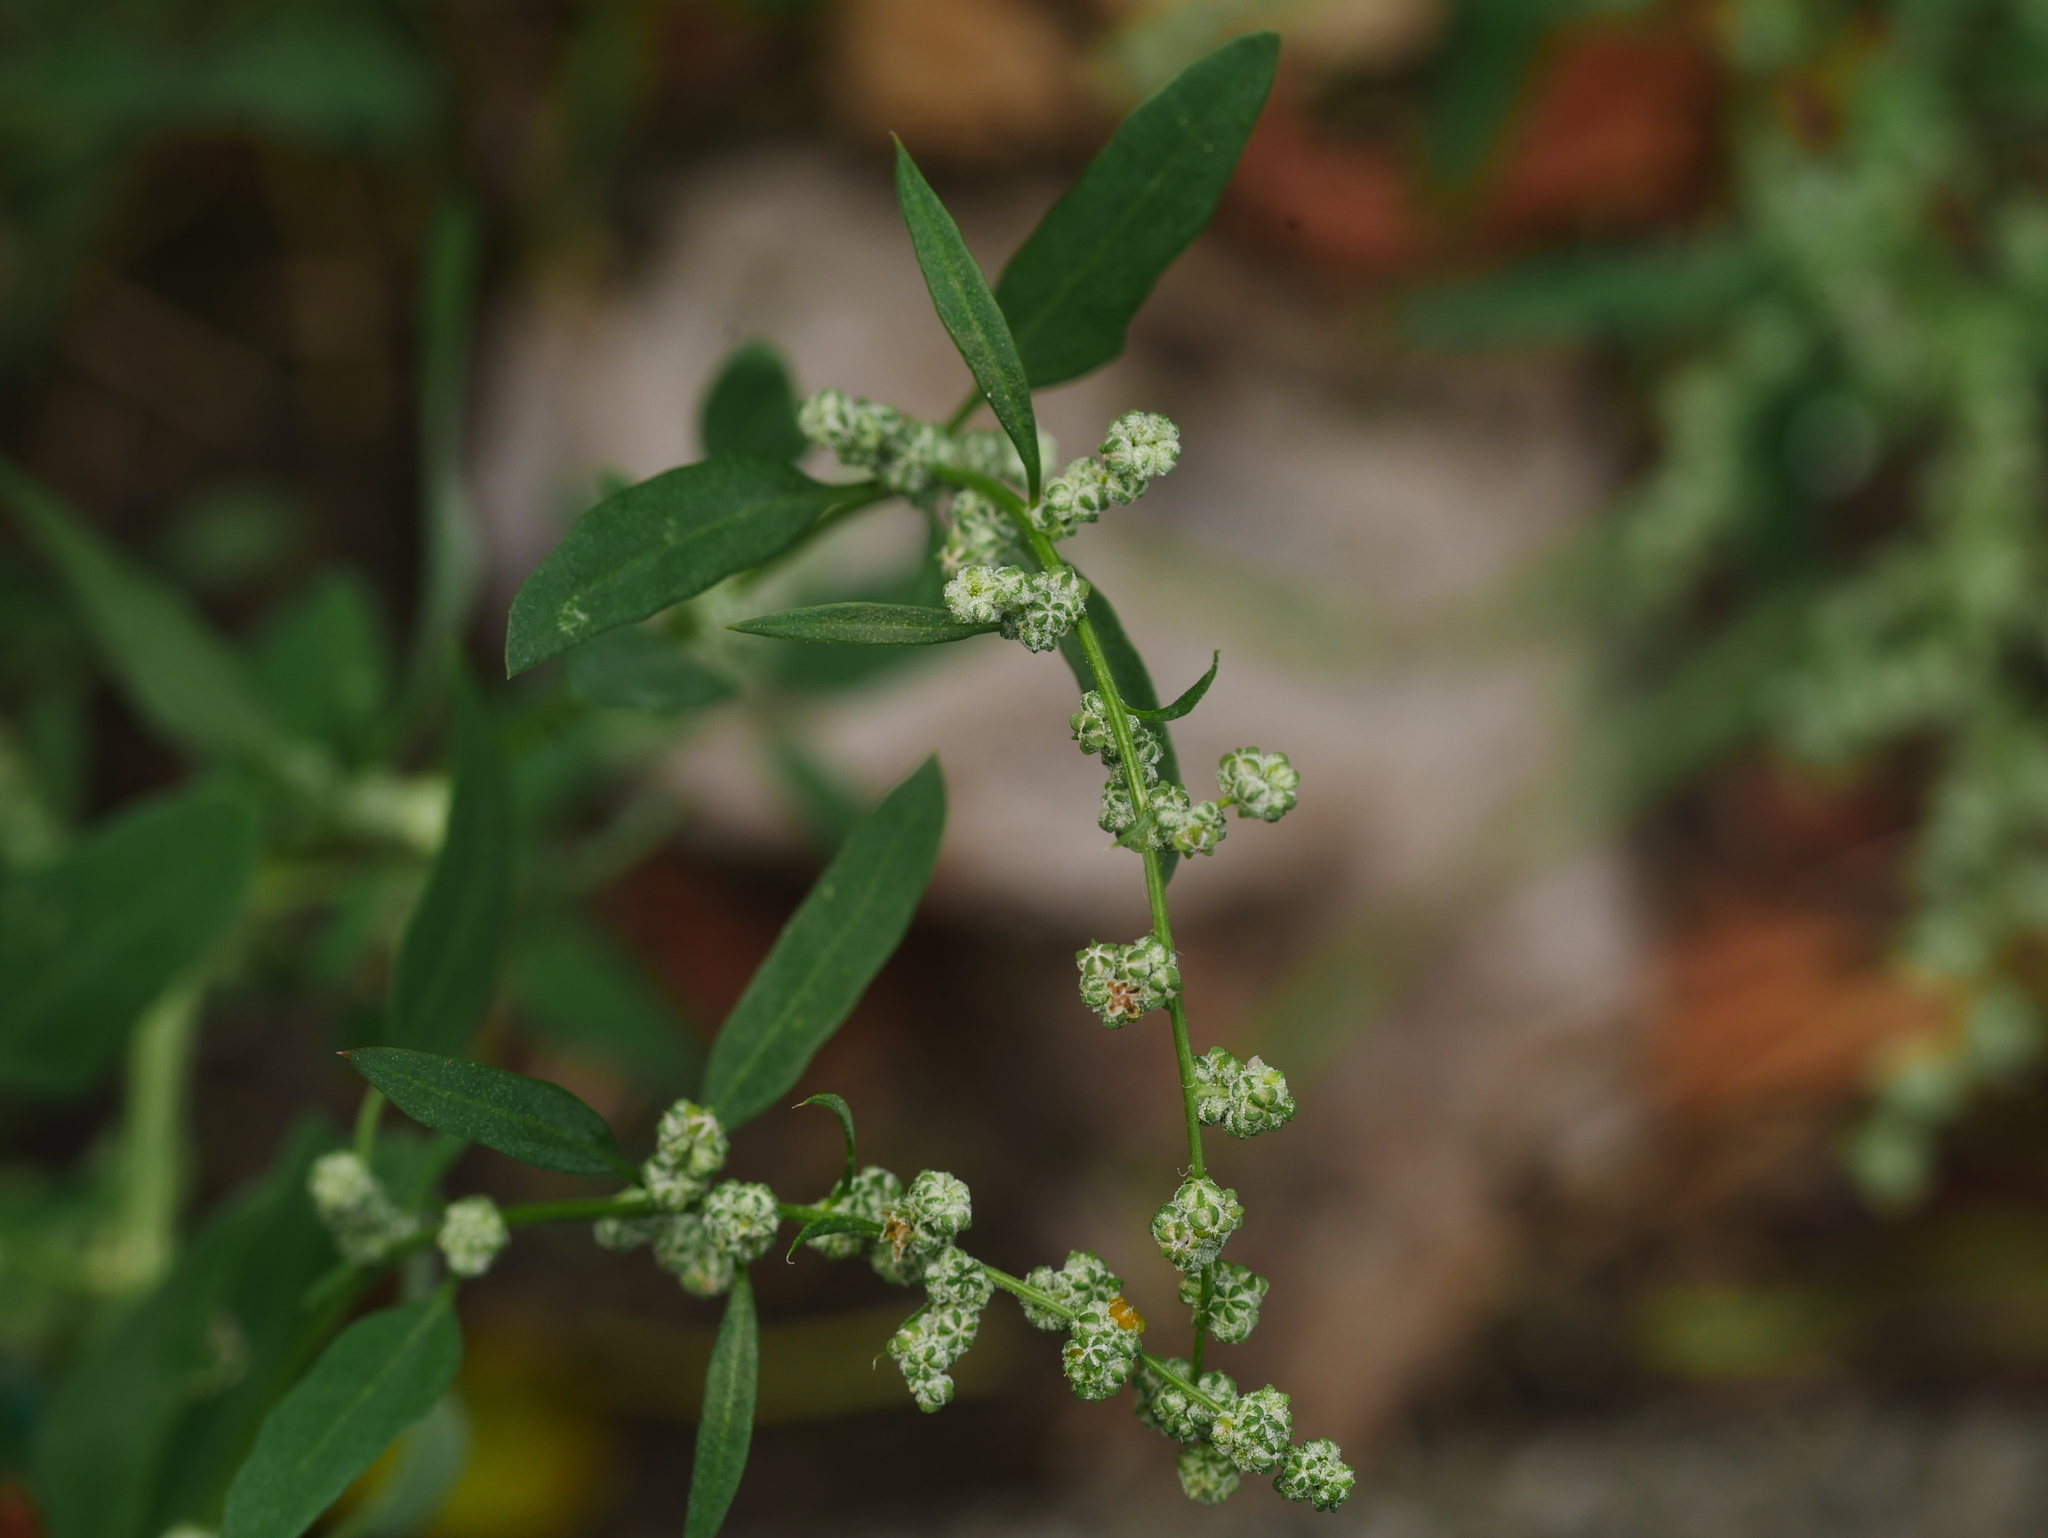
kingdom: Plantae
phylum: Tracheophyta
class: Magnoliopsida
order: Caryophyllales
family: Amaranthaceae
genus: Chenopodium
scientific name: Chenopodium album
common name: Fat-hen
